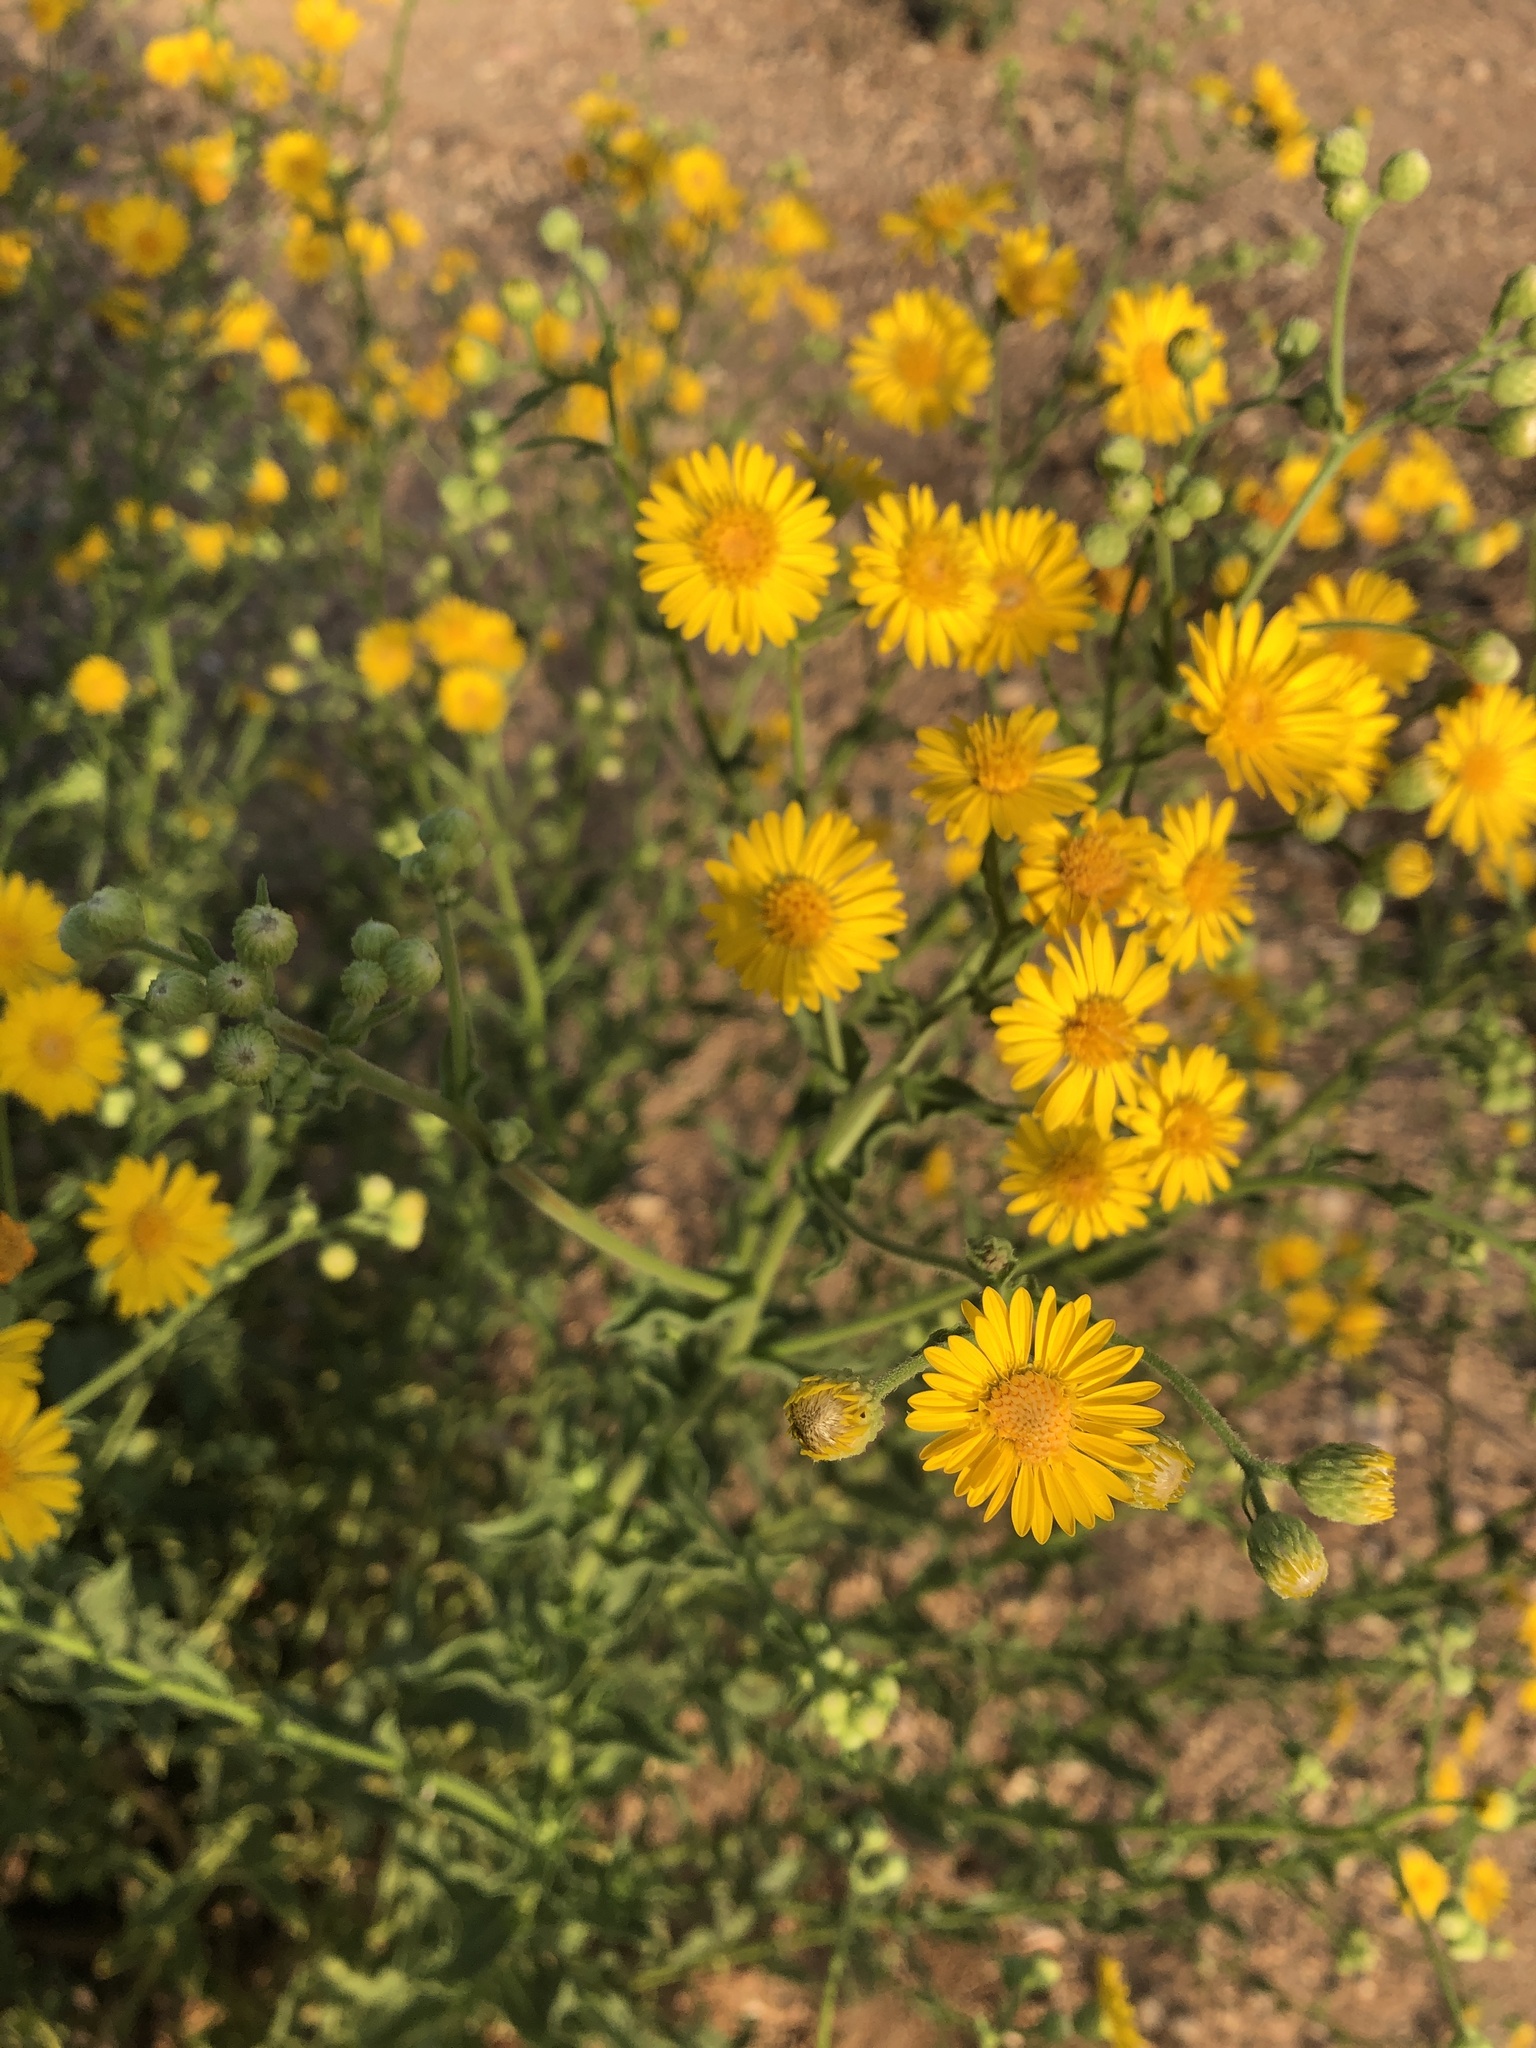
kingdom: Plantae
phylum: Tracheophyta
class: Magnoliopsida
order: Asterales
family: Asteraceae
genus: Heterotheca
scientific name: Heterotheca subaxillaris
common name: Camphorweed
